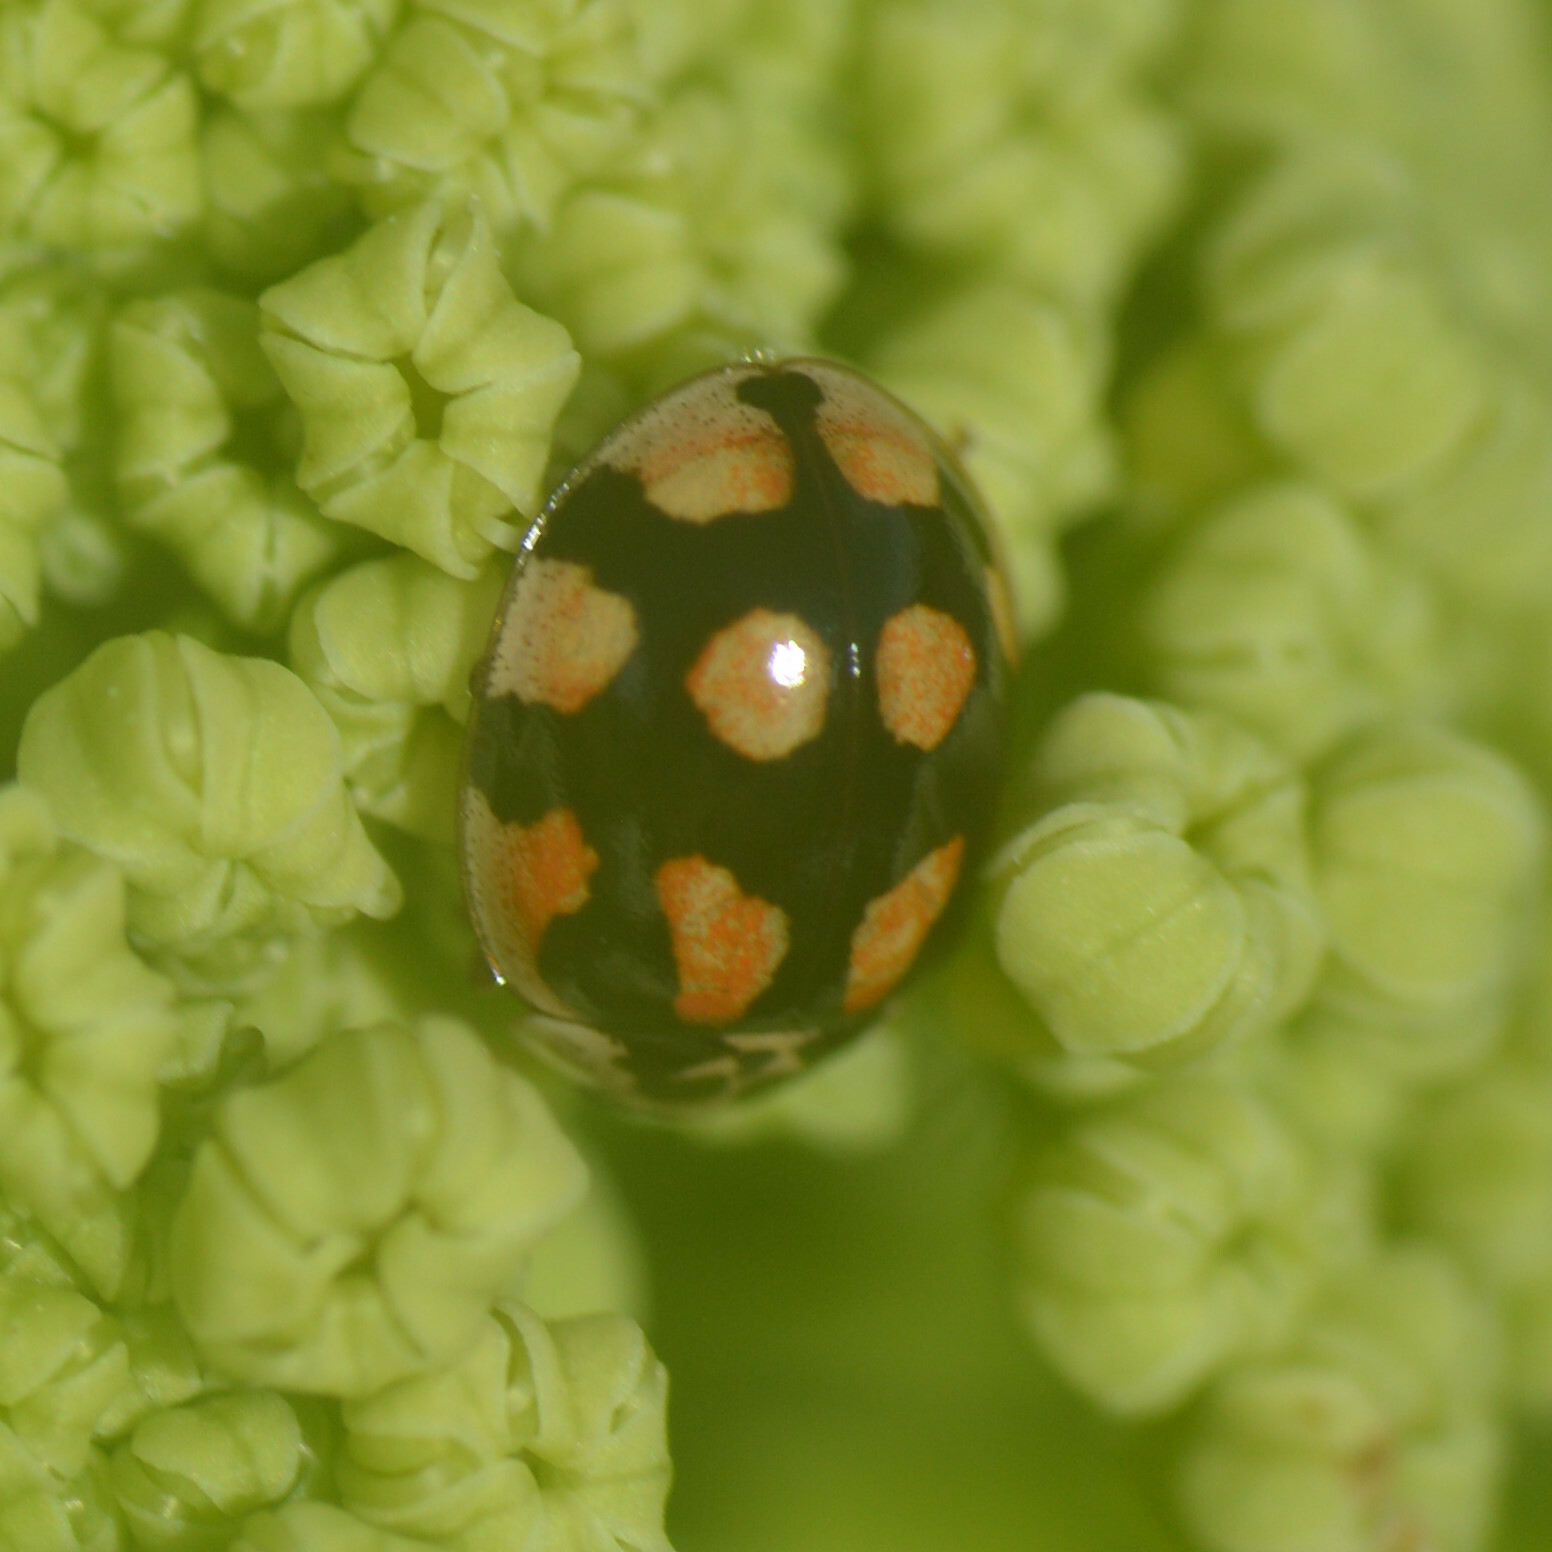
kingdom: Animalia
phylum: Arthropoda
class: Insecta
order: Coleoptera
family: Coccinellidae
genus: Adalia
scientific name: Adalia decempunctata
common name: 10-spot ladybird
